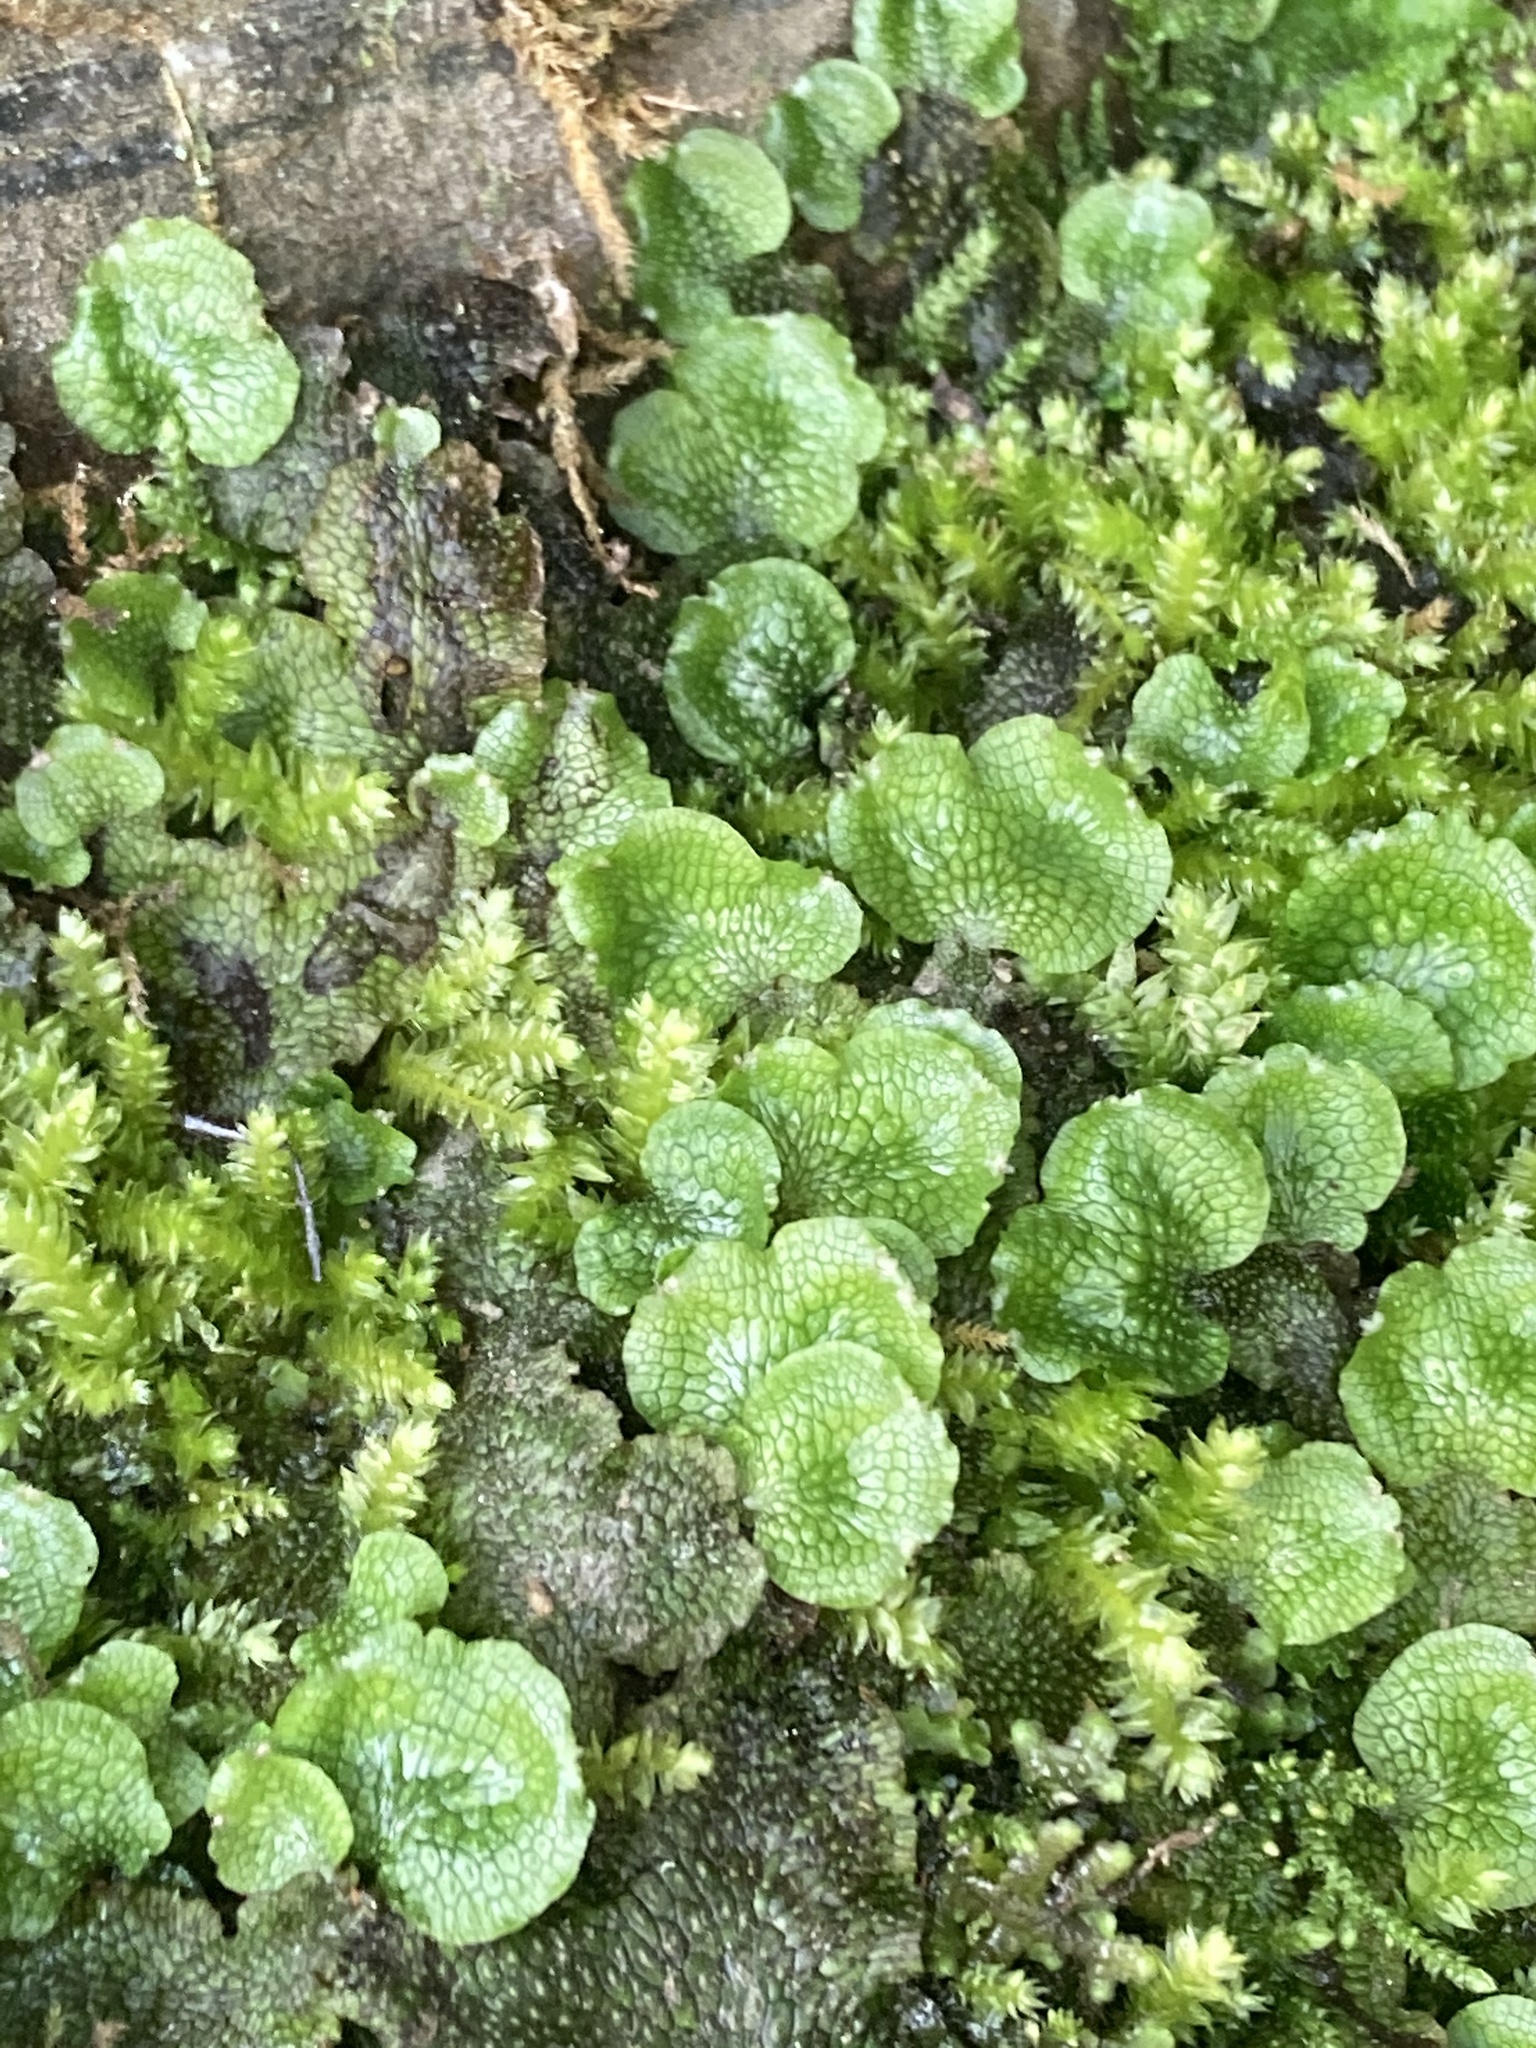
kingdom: Plantae
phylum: Marchantiophyta
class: Marchantiopsida
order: Marchantiales
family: Conocephalaceae
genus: Conocephalum
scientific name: Conocephalum salebrosum
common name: Cat-tongue liverwort
